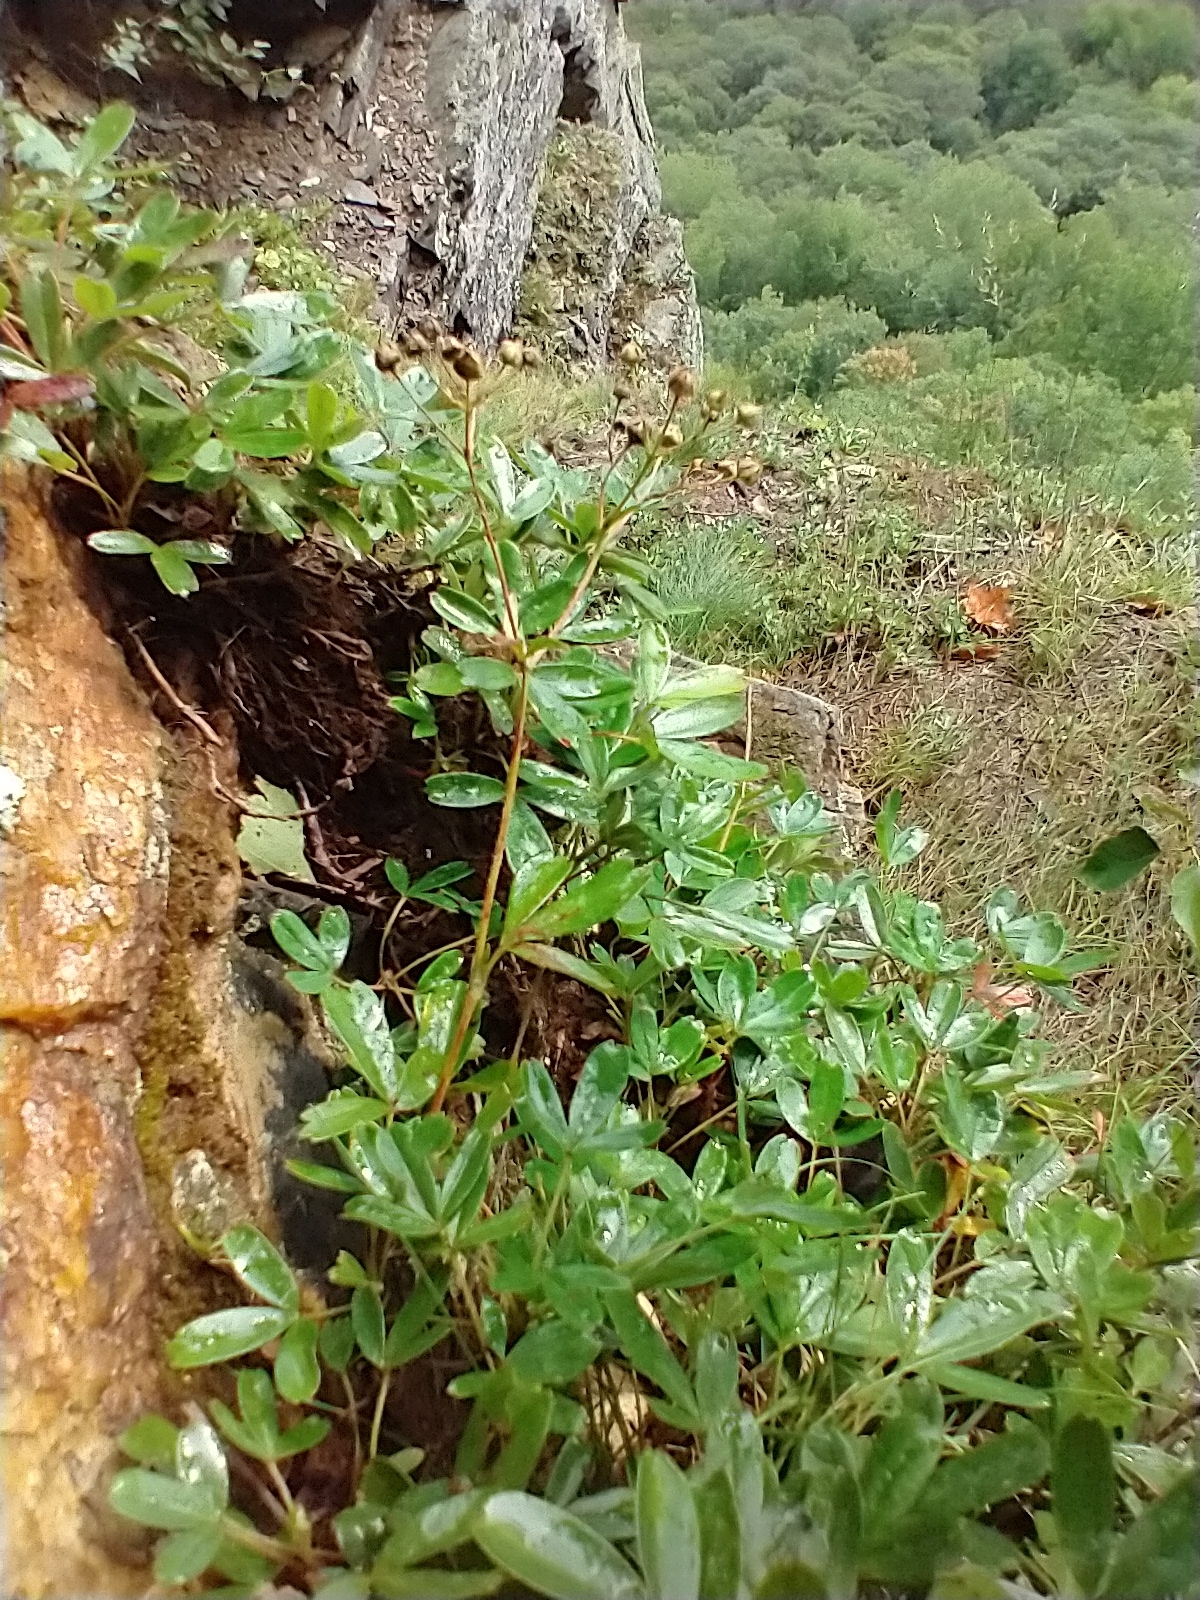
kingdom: Plantae
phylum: Tracheophyta
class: Magnoliopsida
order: Rosales
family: Rosaceae
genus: Sibbaldia
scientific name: Sibbaldia tridentata
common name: Three-toothed cinquefoil
